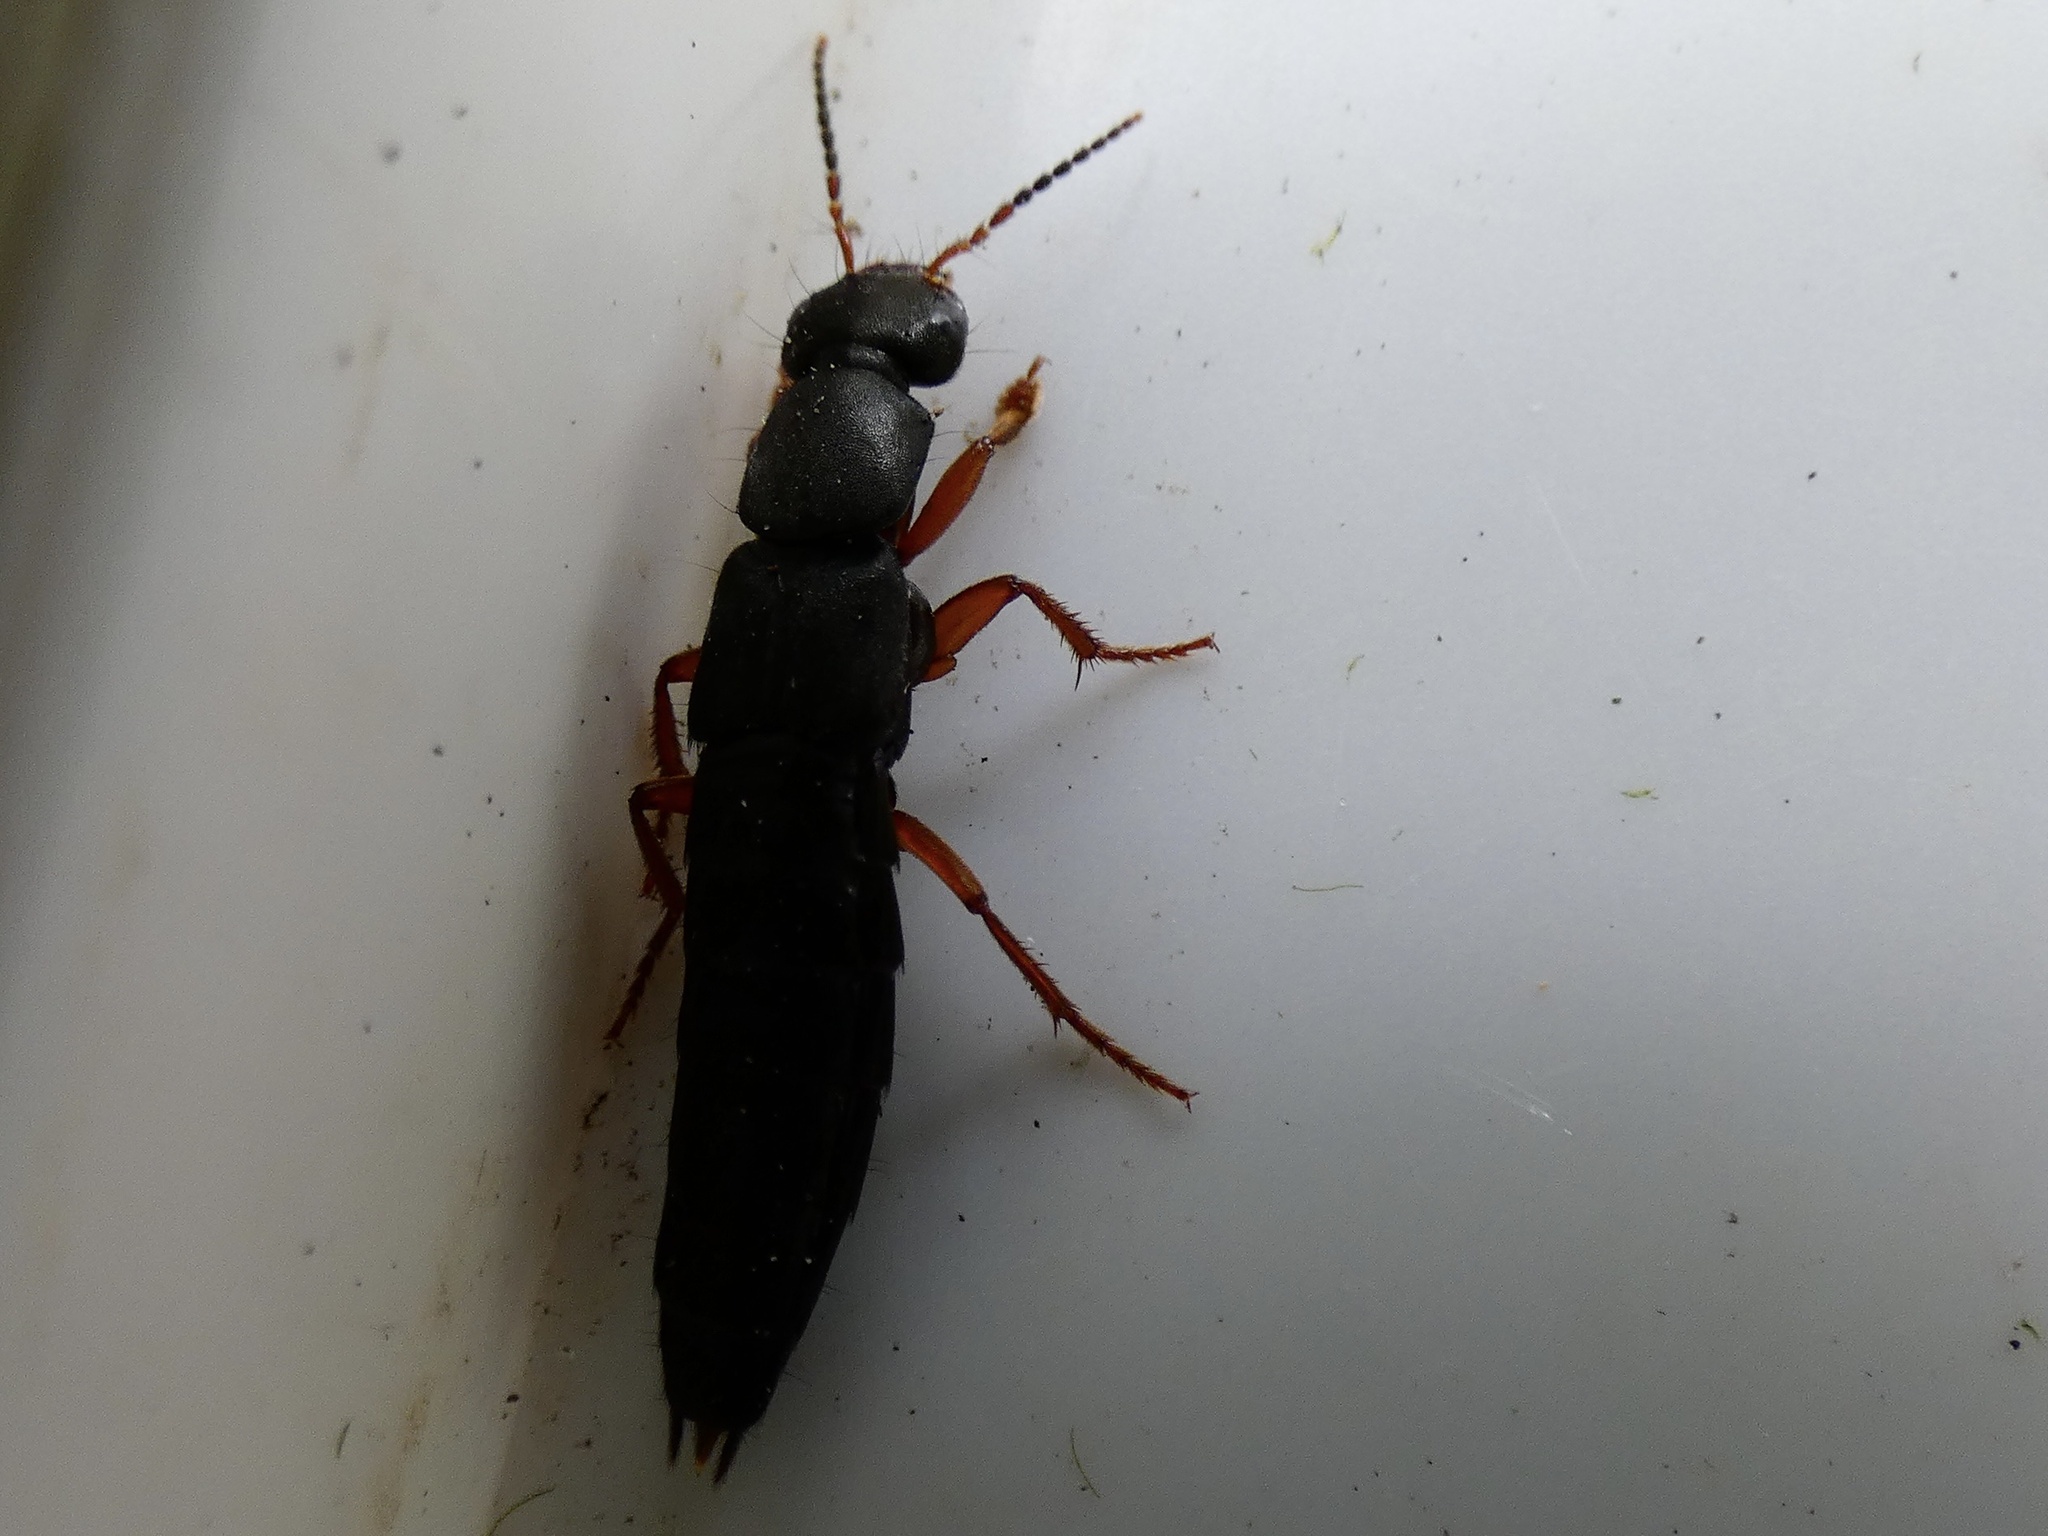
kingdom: Animalia
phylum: Arthropoda
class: Insecta
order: Coleoptera
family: Staphylinidae
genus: Tasgius
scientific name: Tasgius morsitans
